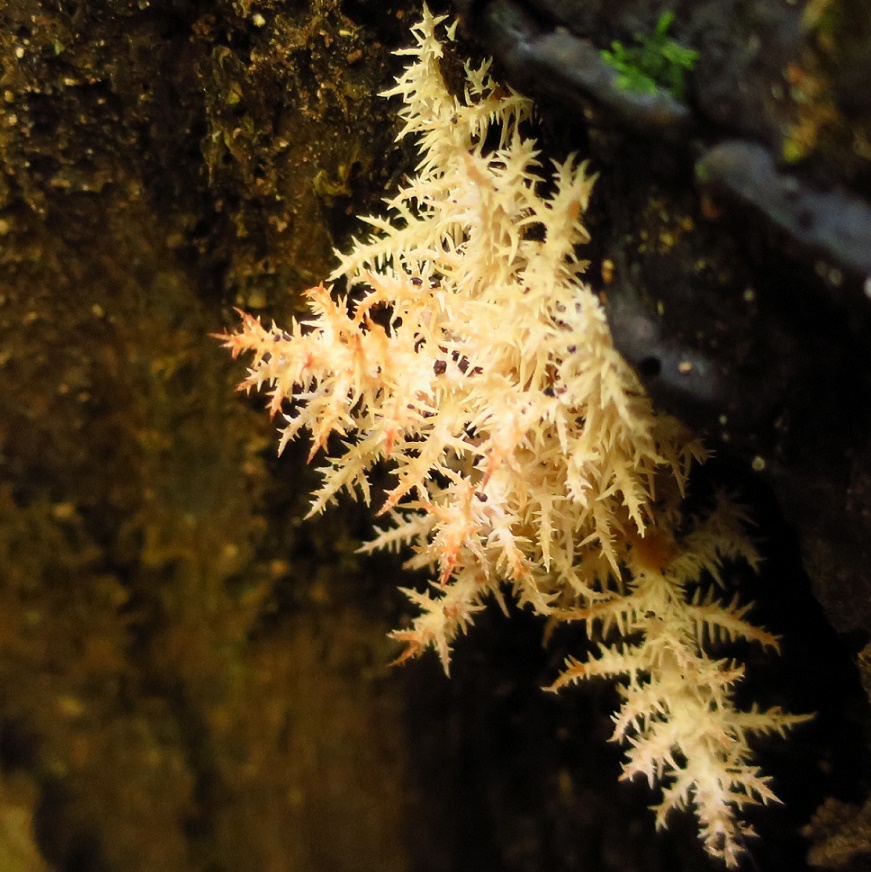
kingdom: Fungi
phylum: Basidiomycota
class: Agaricomycetes
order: Russulales
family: Hericiaceae
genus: Hericium
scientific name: Hericium novae-zealandiae
